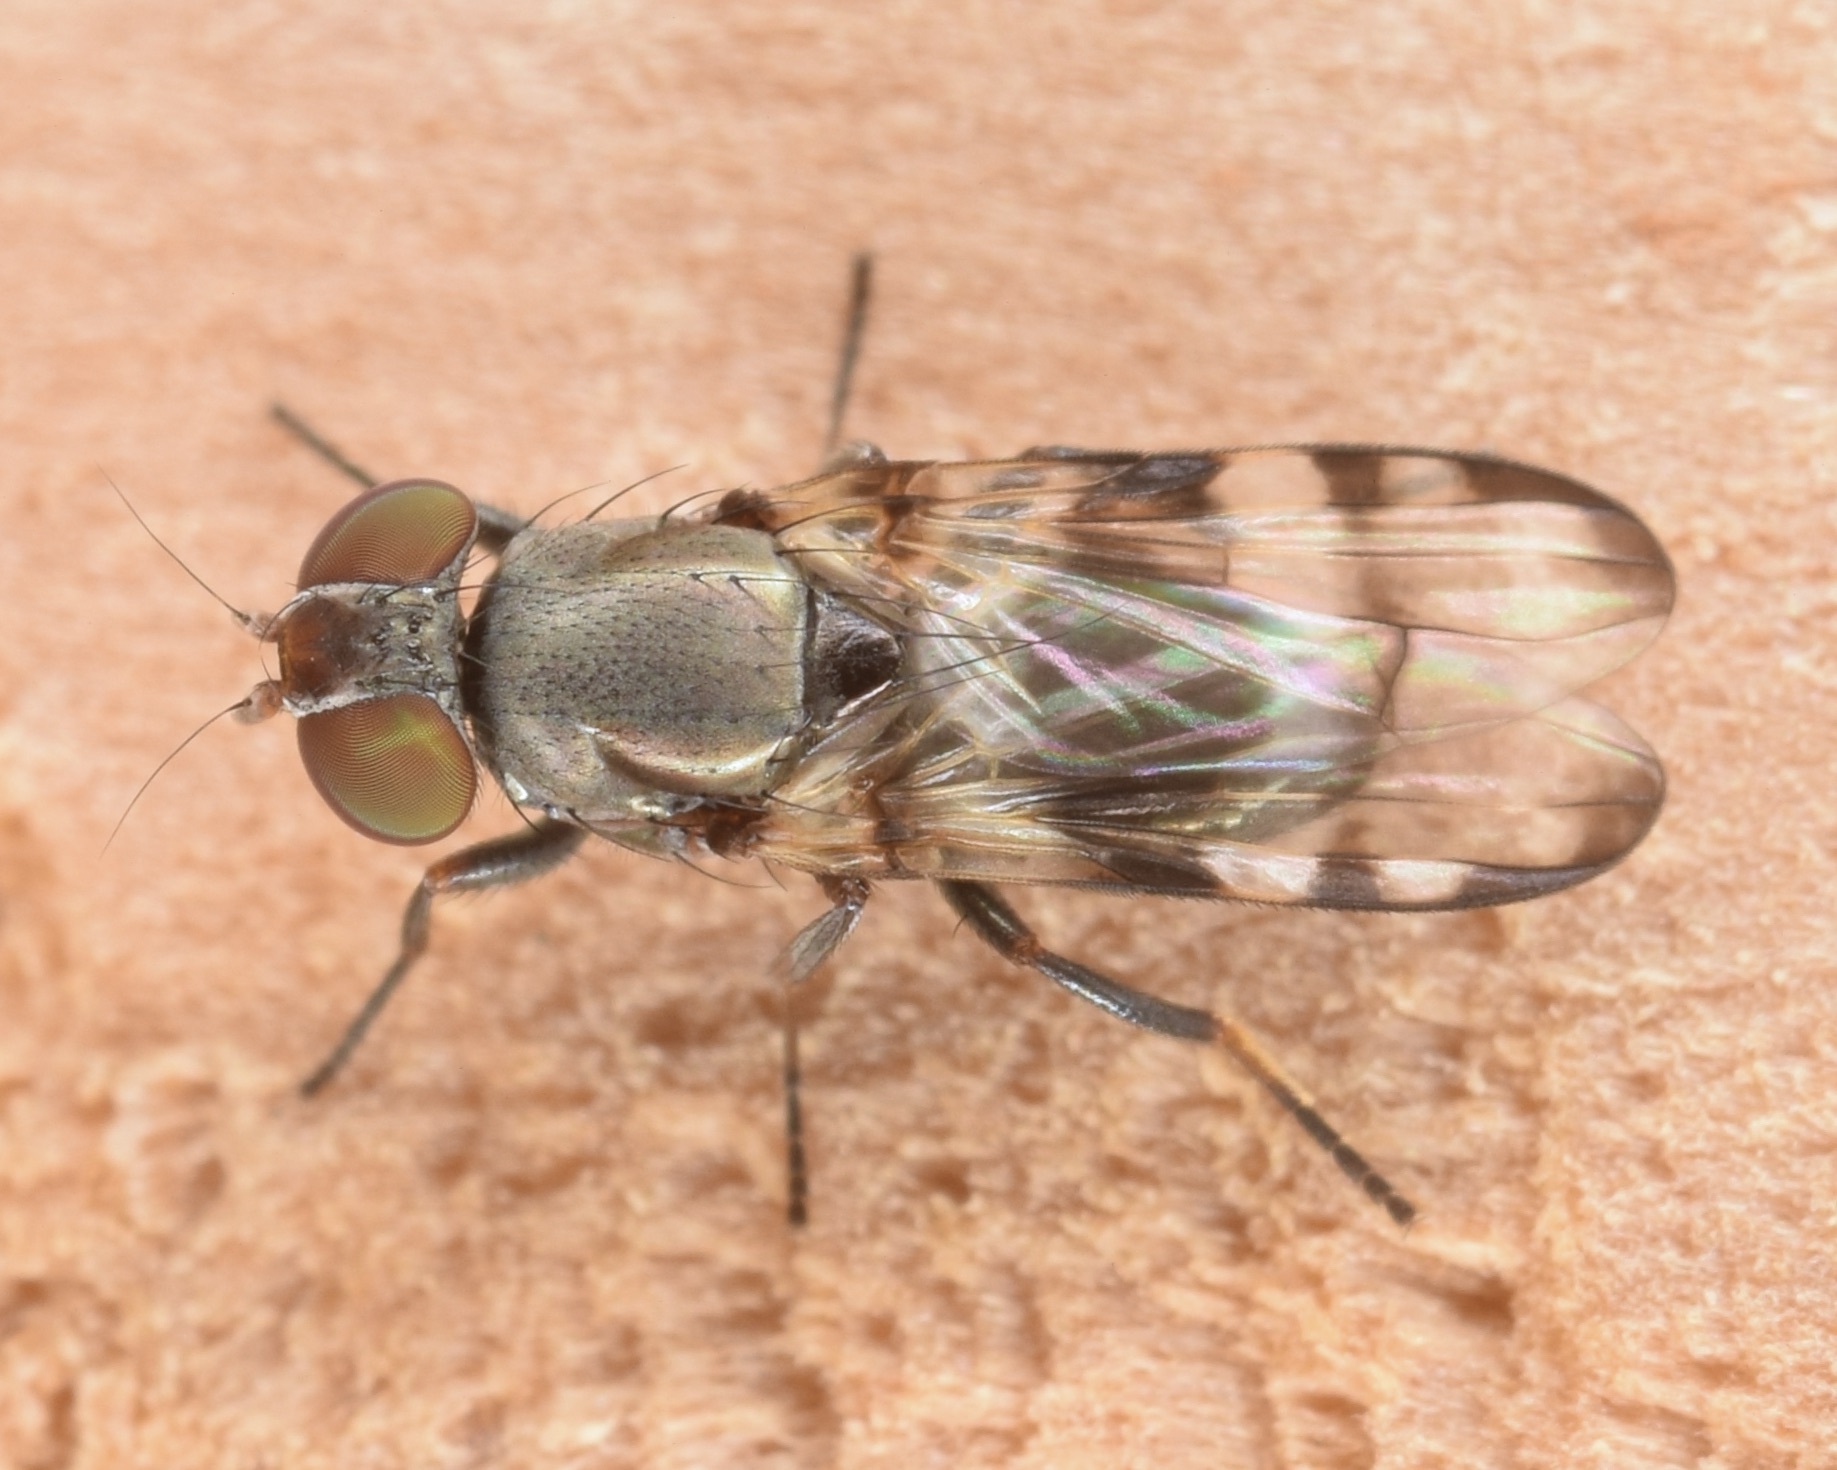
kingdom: Animalia
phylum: Arthropoda
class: Insecta
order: Diptera
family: Ulidiidae
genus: Euxesta
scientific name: Euxesta eluta
